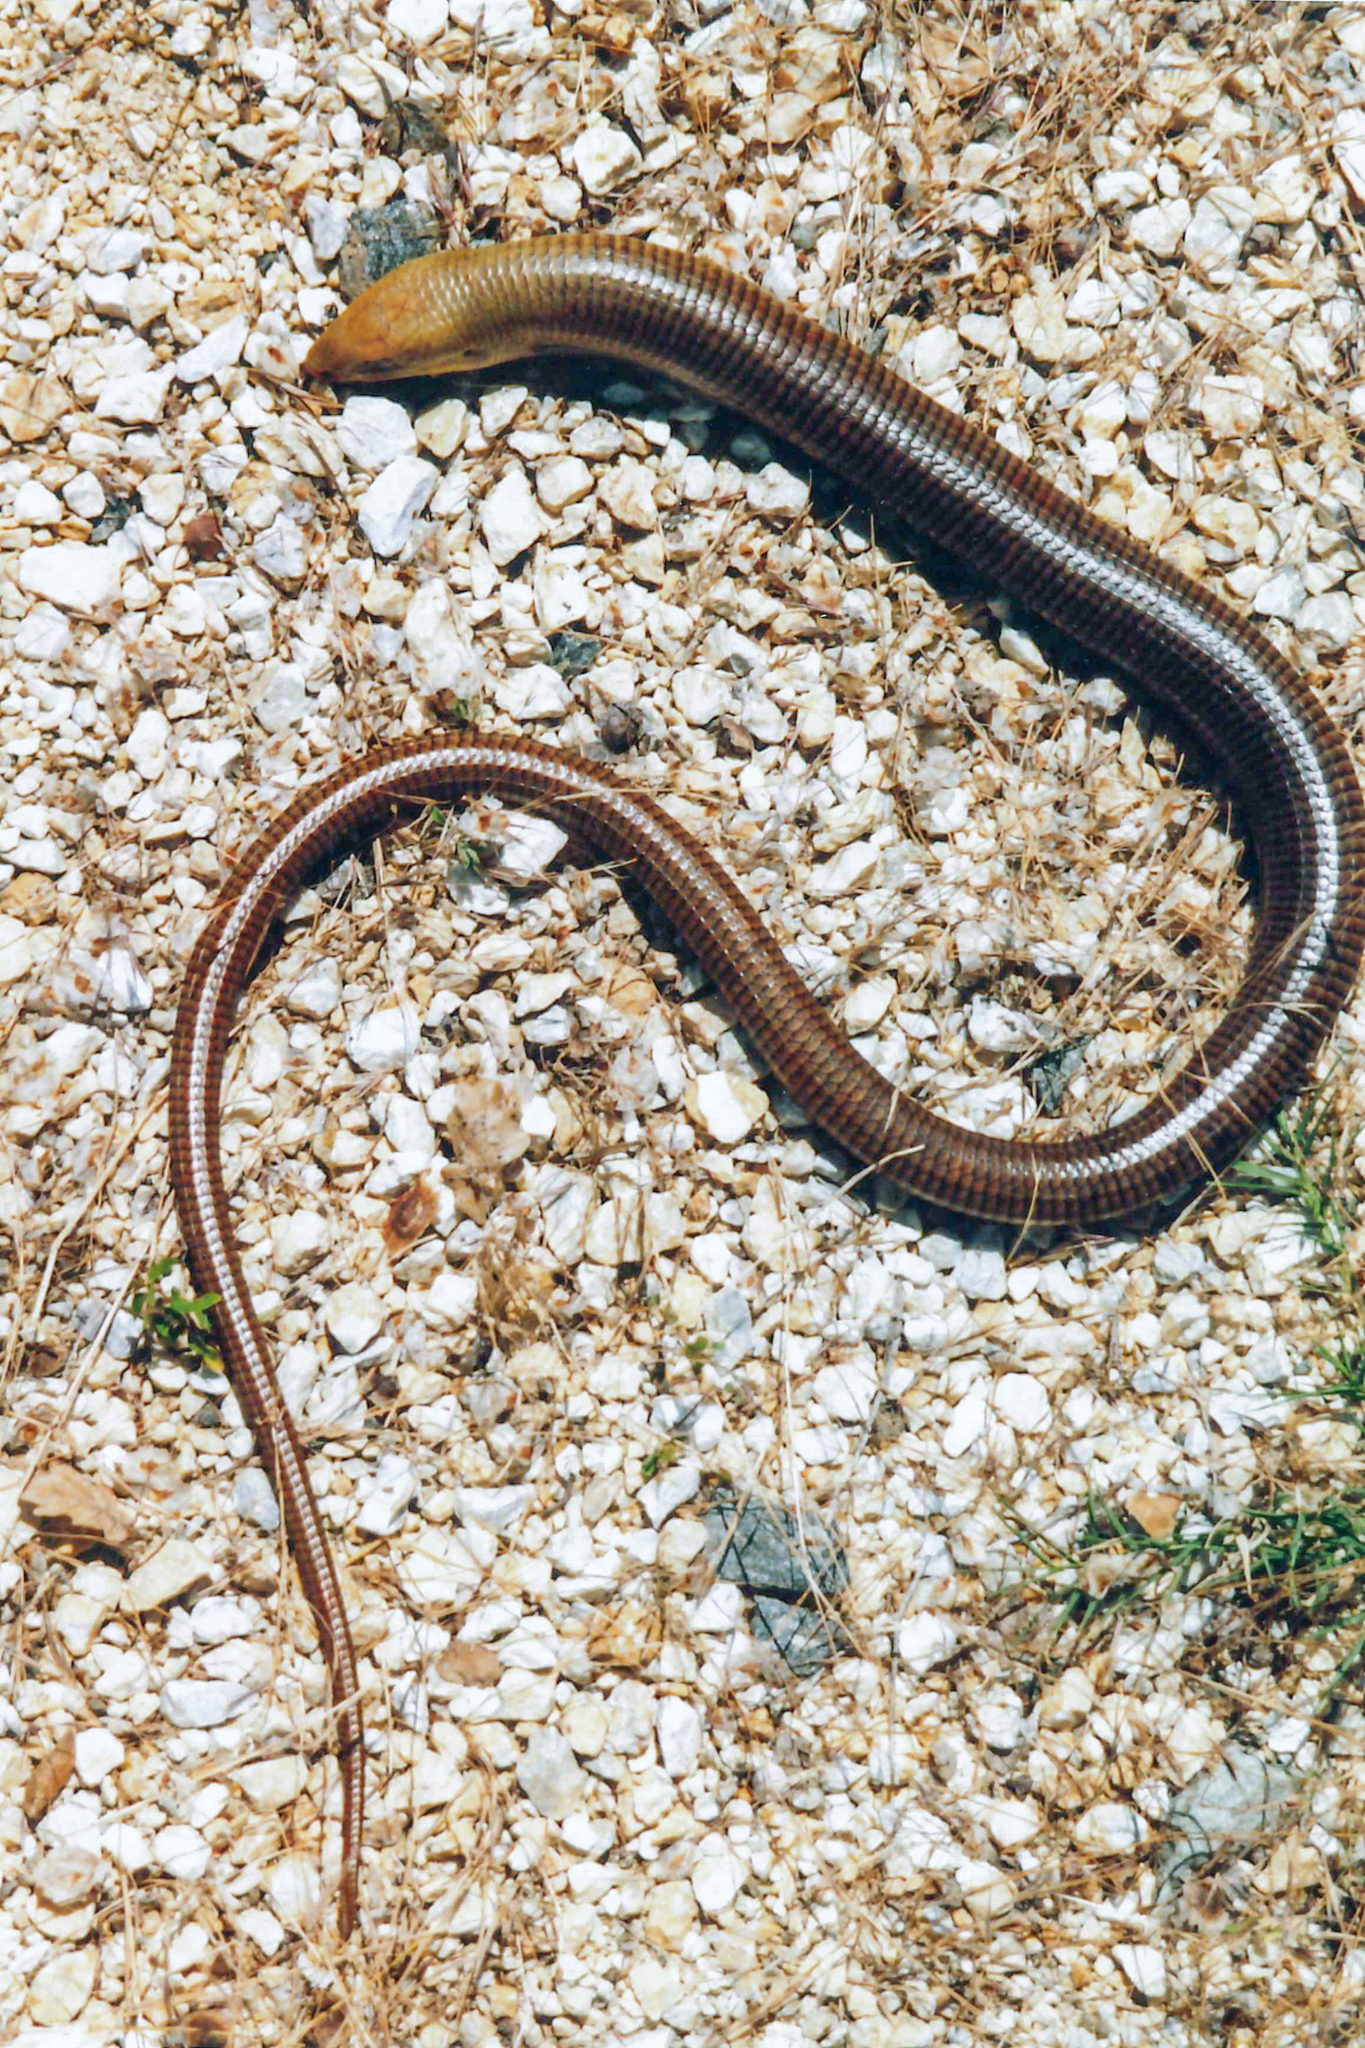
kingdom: Animalia
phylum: Chordata
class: Squamata
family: Anguidae
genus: Pseudopus
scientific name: Pseudopus apodus
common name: European glass lizard
